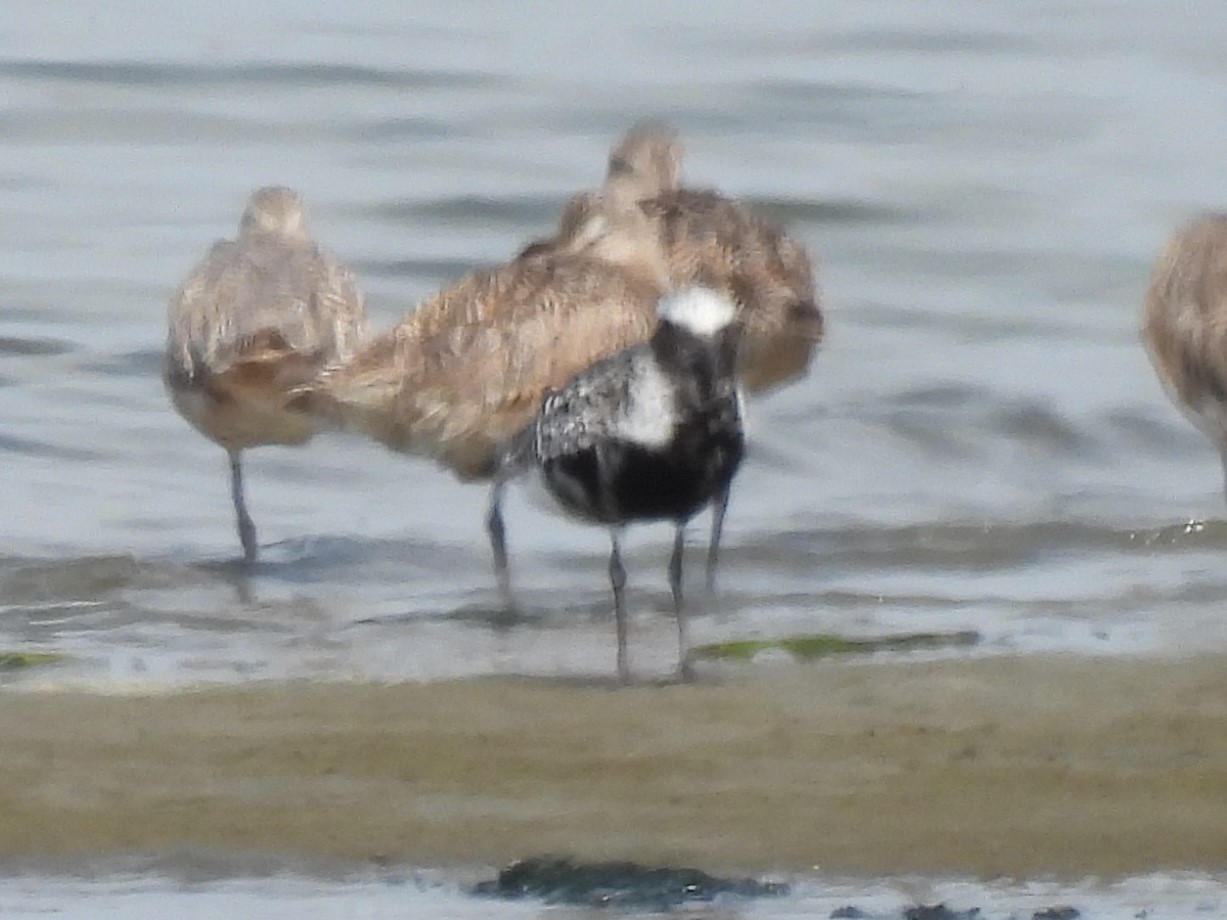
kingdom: Animalia
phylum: Chordata
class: Aves
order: Charadriiformes
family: Charadriidae
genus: Pluvialis
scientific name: Pluvialis squatarola
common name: Grey plover
